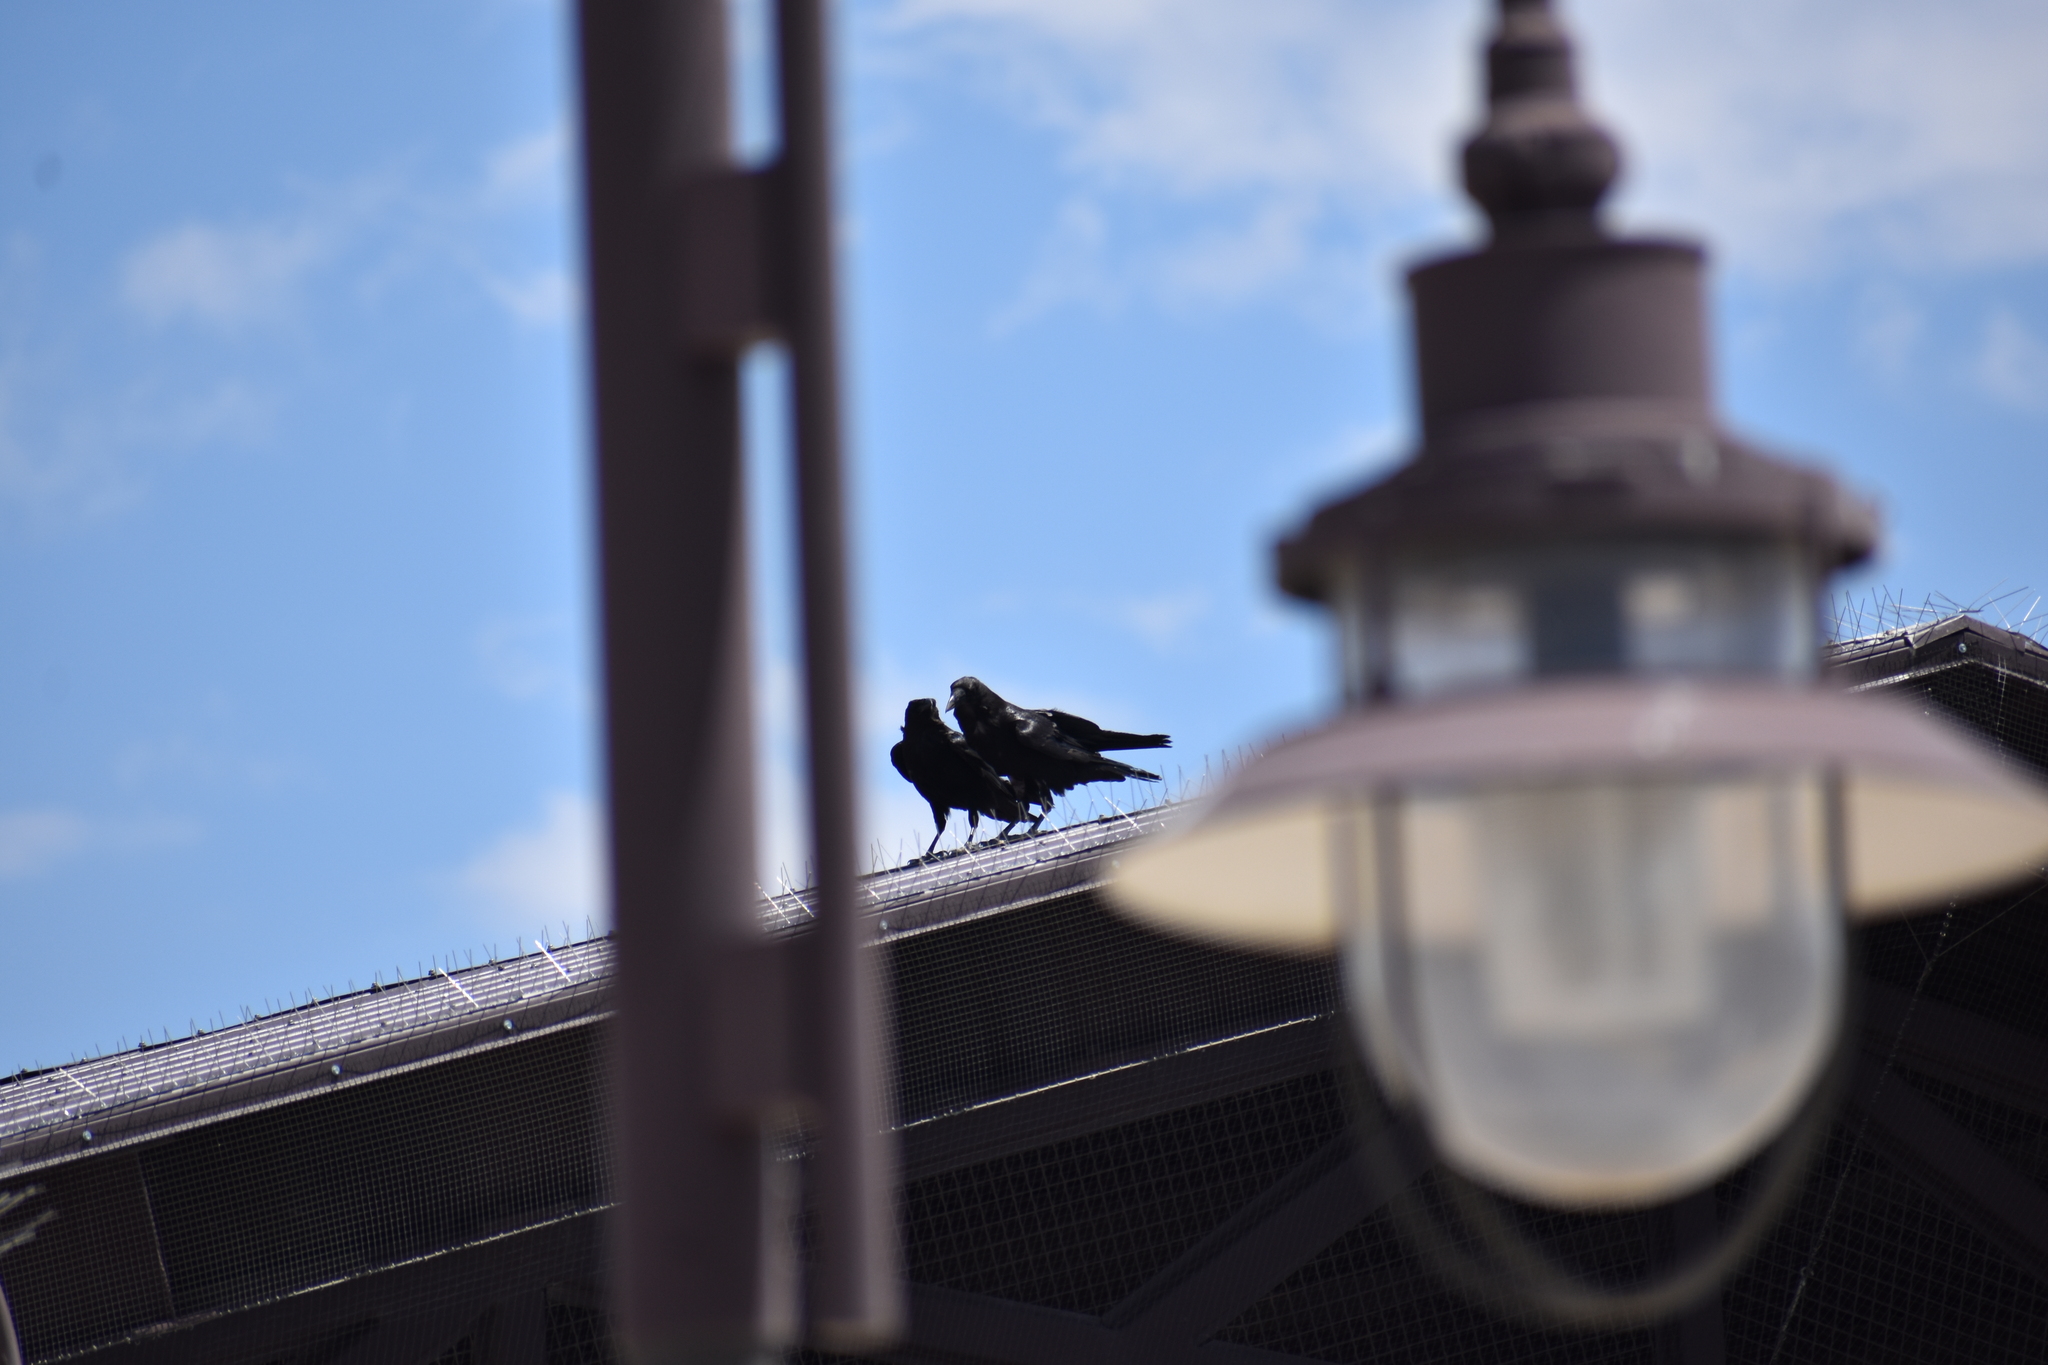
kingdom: Animalia
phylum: Chordata
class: Aves
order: Passeriformes
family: Corvidae
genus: Corvus
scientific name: Corvus corax
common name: Common raven
